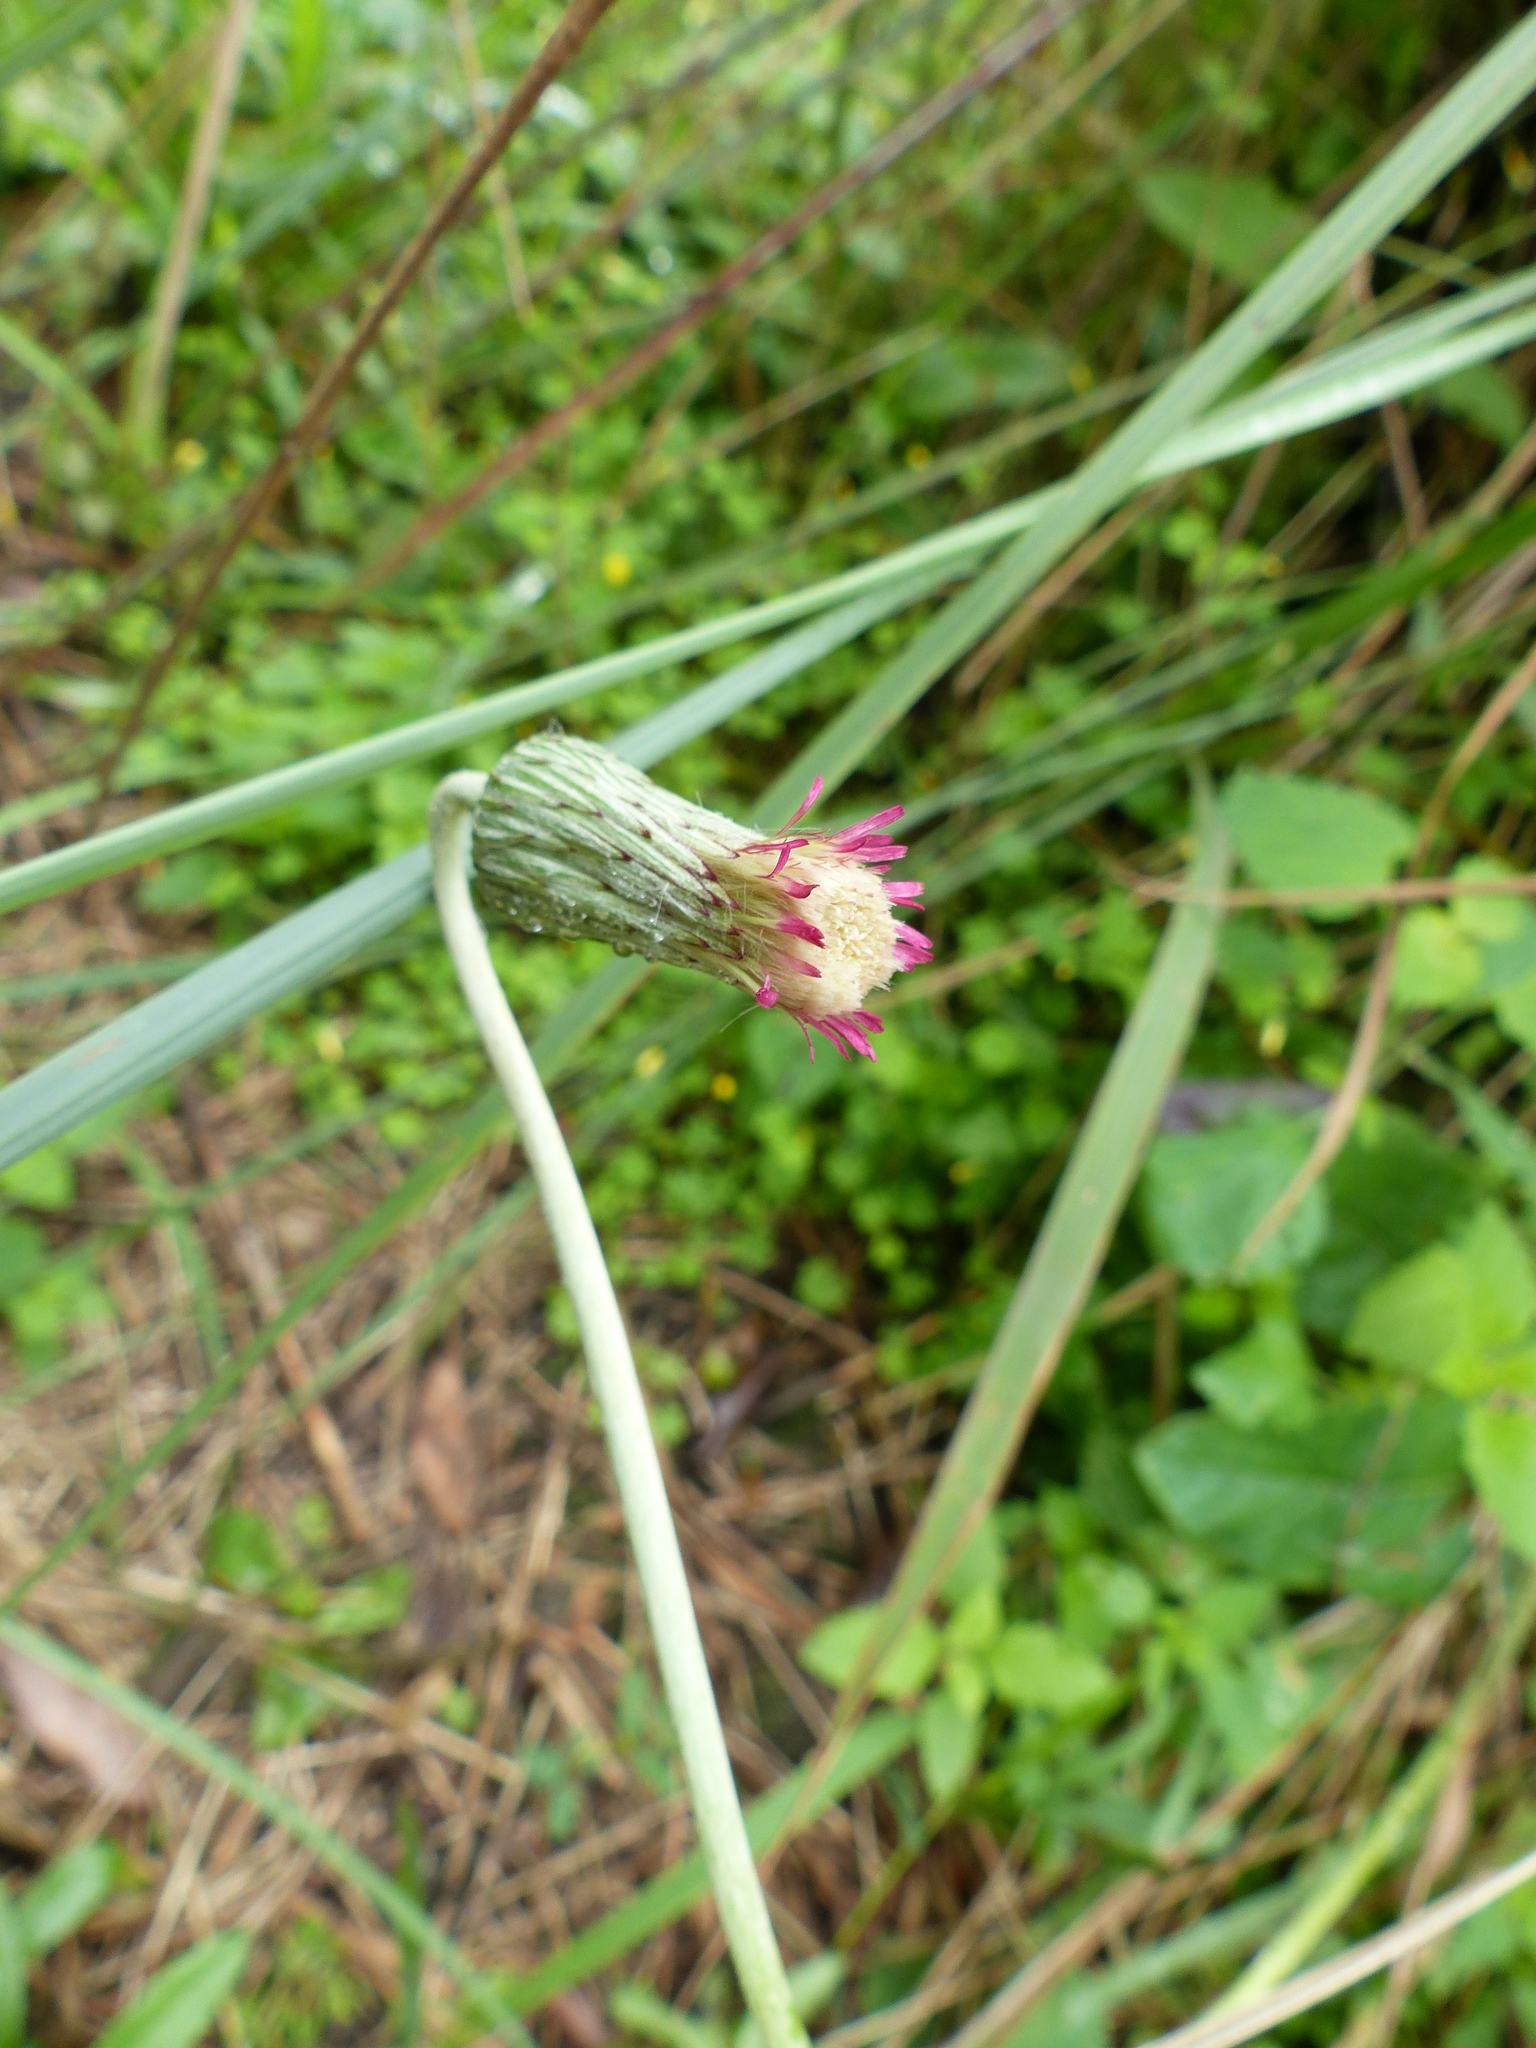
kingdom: Plantae
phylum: Tracheophyta
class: Magnoliopsida
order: Asterales
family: Asteraceae
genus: Chaptalia
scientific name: Chaptalia nutans
